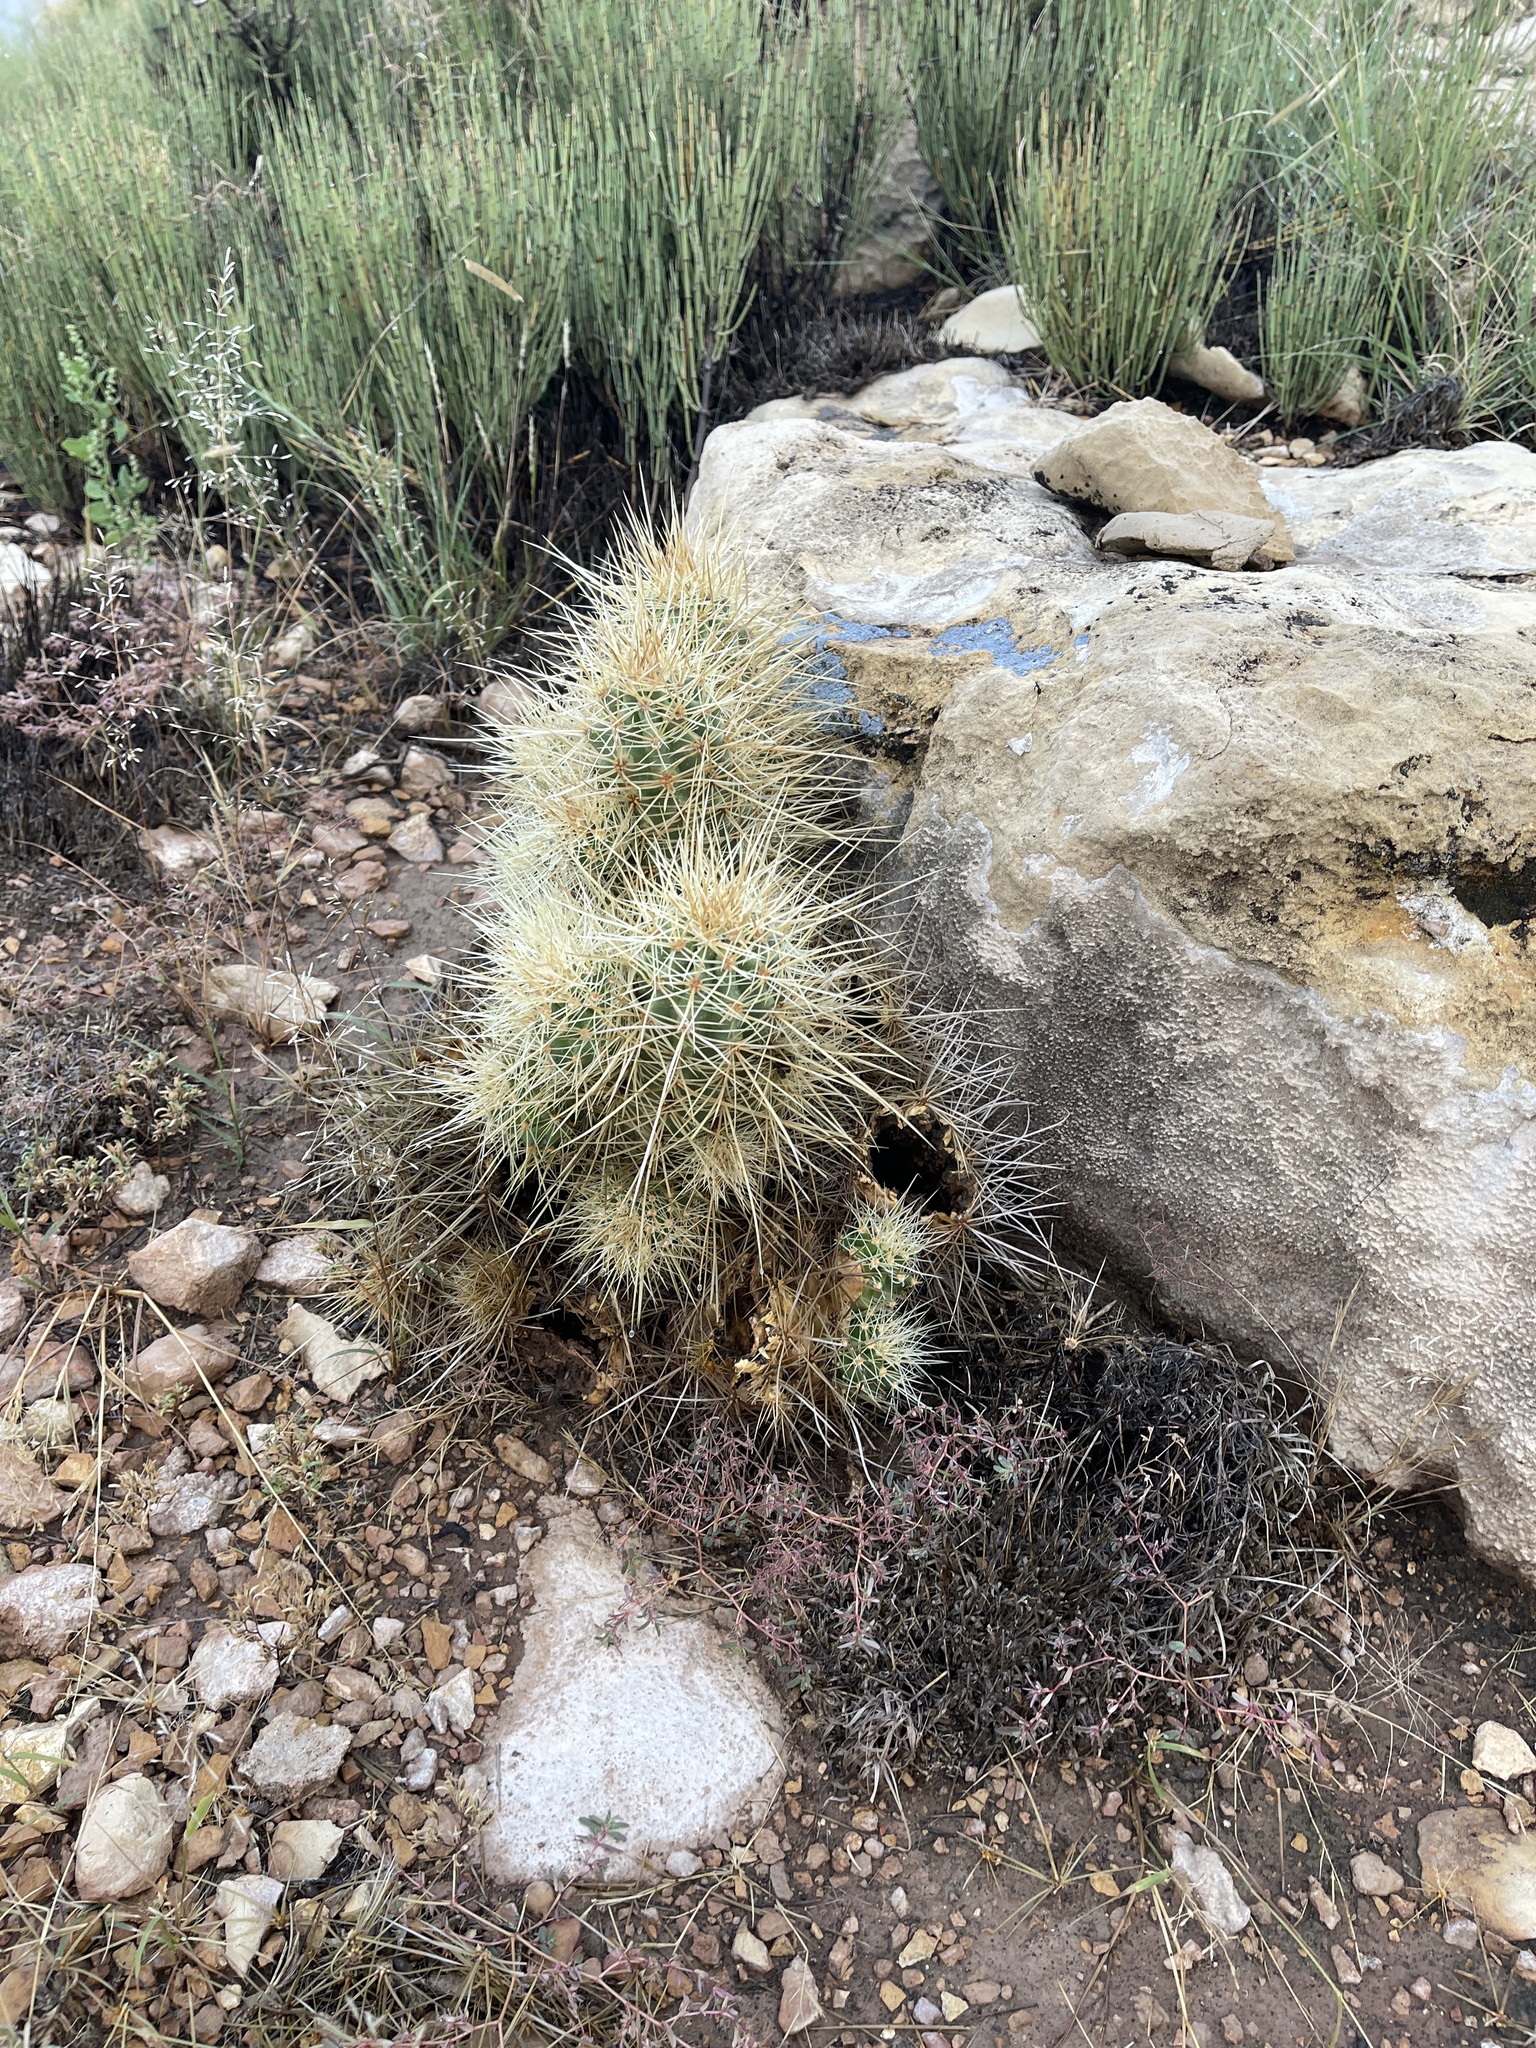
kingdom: Plantae
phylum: Tracheophyta
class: Magnoliopsida
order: Caryophyllales
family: Cactaceae
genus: Echinocereus
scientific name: Echinocereus triglochidiatus
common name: Claretcup hedgehog
